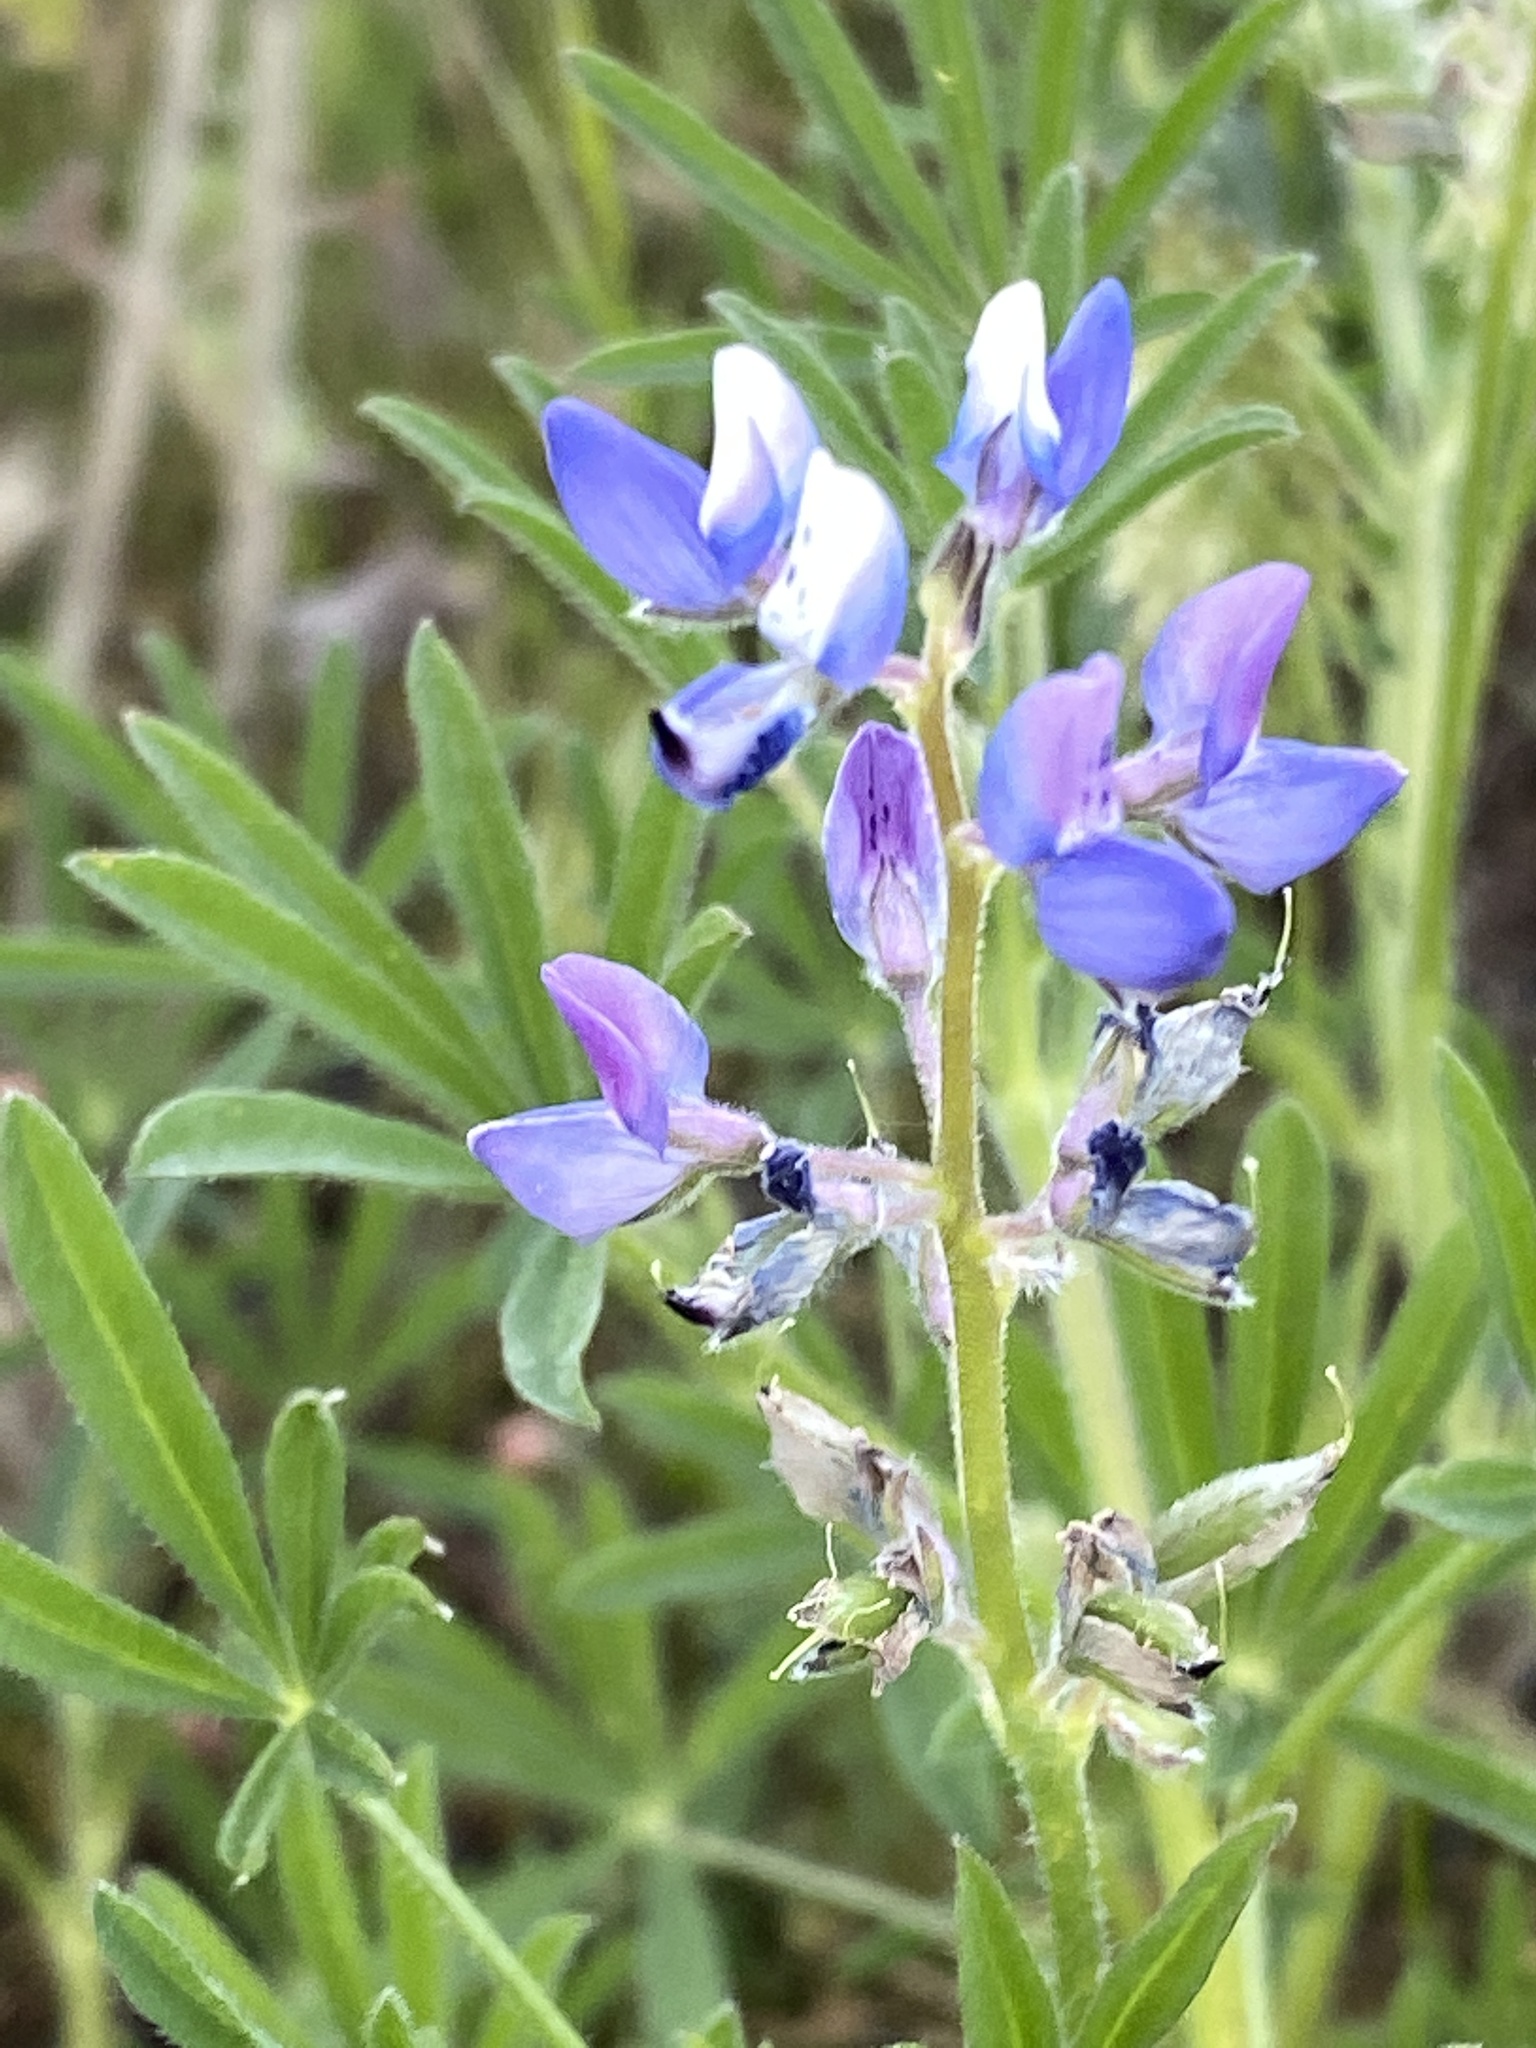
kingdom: Plantae
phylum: Tracheophyta
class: Magnoliopsida
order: Fabales
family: Fabaceae
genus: Lupinus
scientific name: Lupinus bicolor
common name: Miniature lupine
